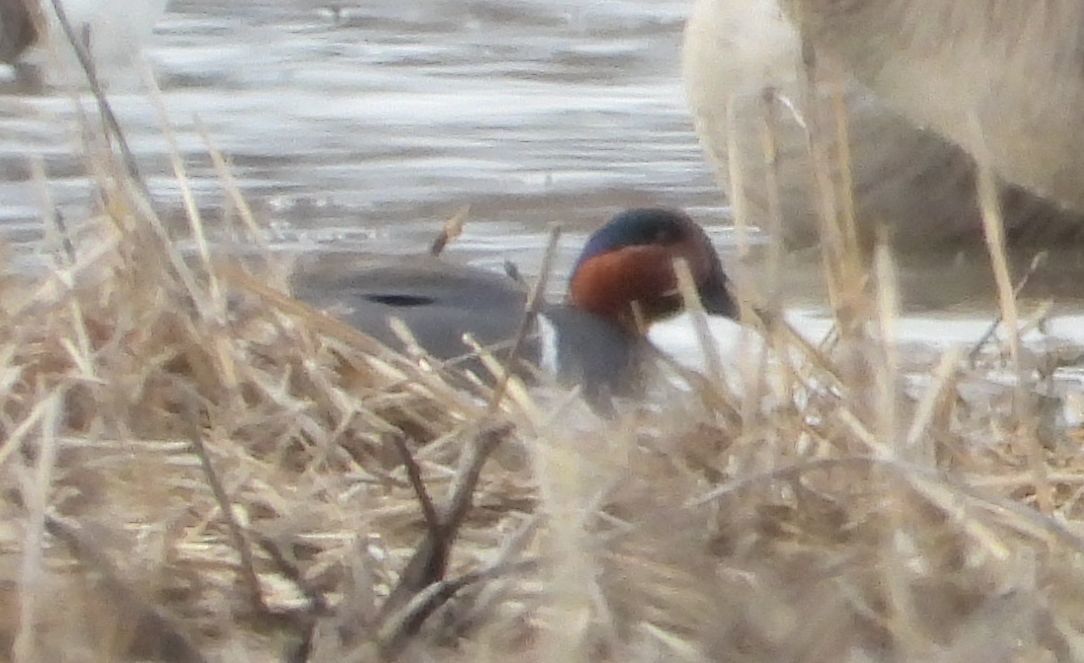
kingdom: Animalia
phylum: Chordata
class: Aves
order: Anseriformes
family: Anatidae
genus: Anas
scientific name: Anas crecca
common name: Eurasian teal
